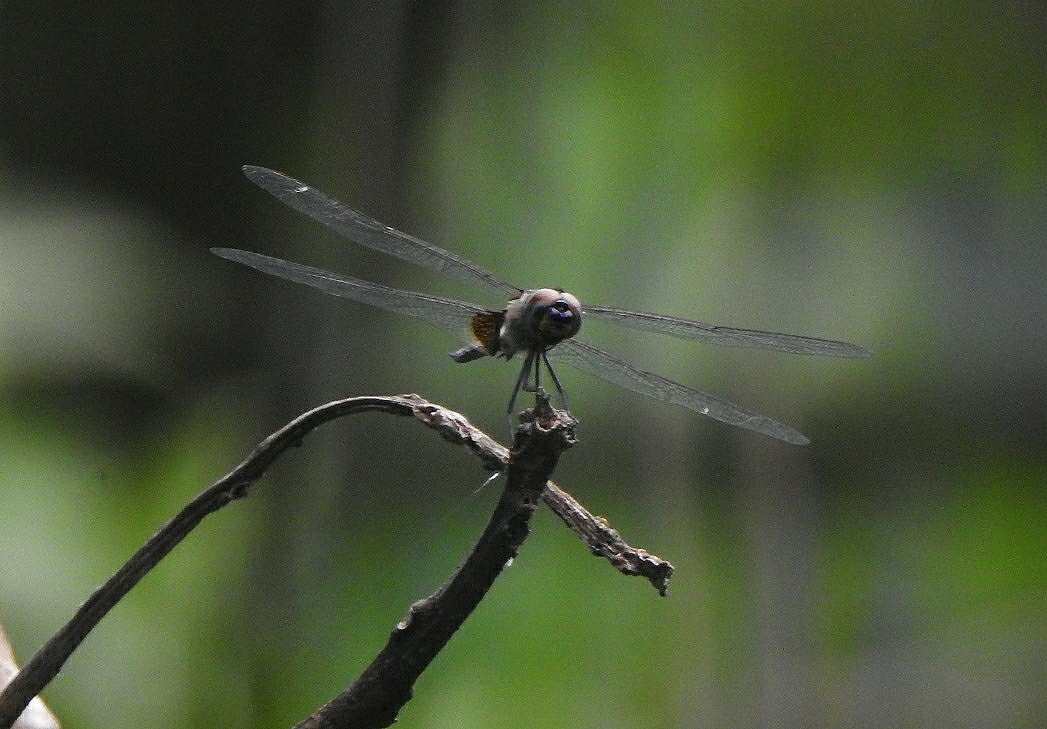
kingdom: Animalia
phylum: Arthropoda
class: Insecta
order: Odonata
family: Libellulidae
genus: Tramea
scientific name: Tramea limbata
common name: Ferruginous glider
